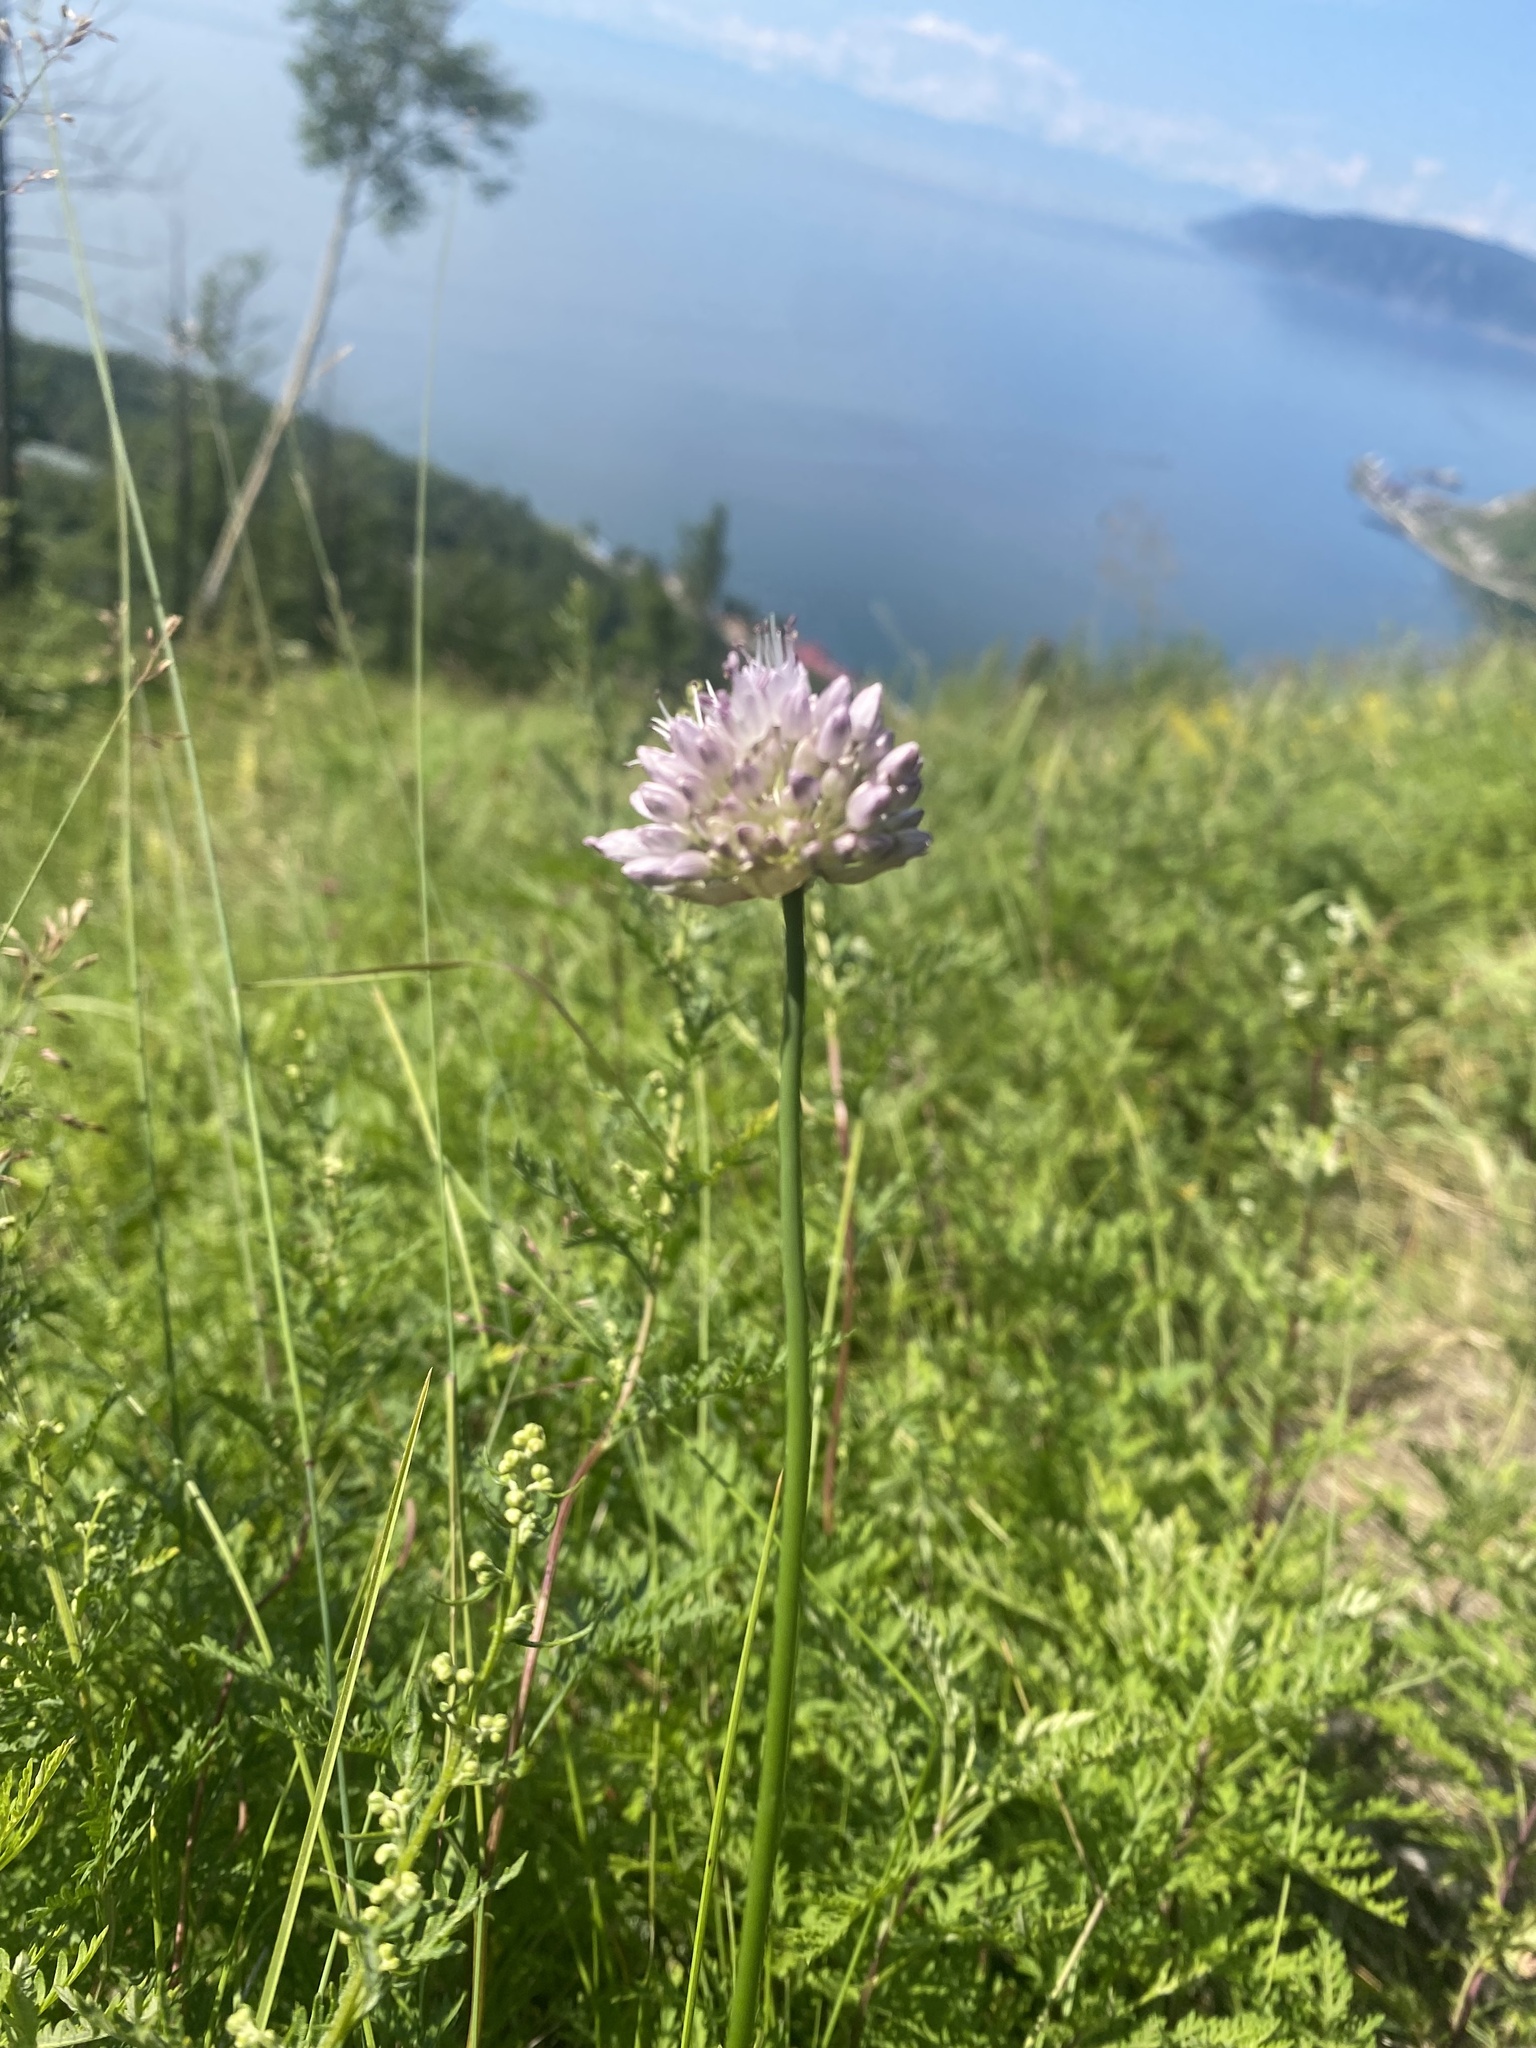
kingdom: Plantae
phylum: Tracheophyta
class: Liliopsida
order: Asparagales
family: Amaryllidaceae
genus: Allium
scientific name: Allium strictum
